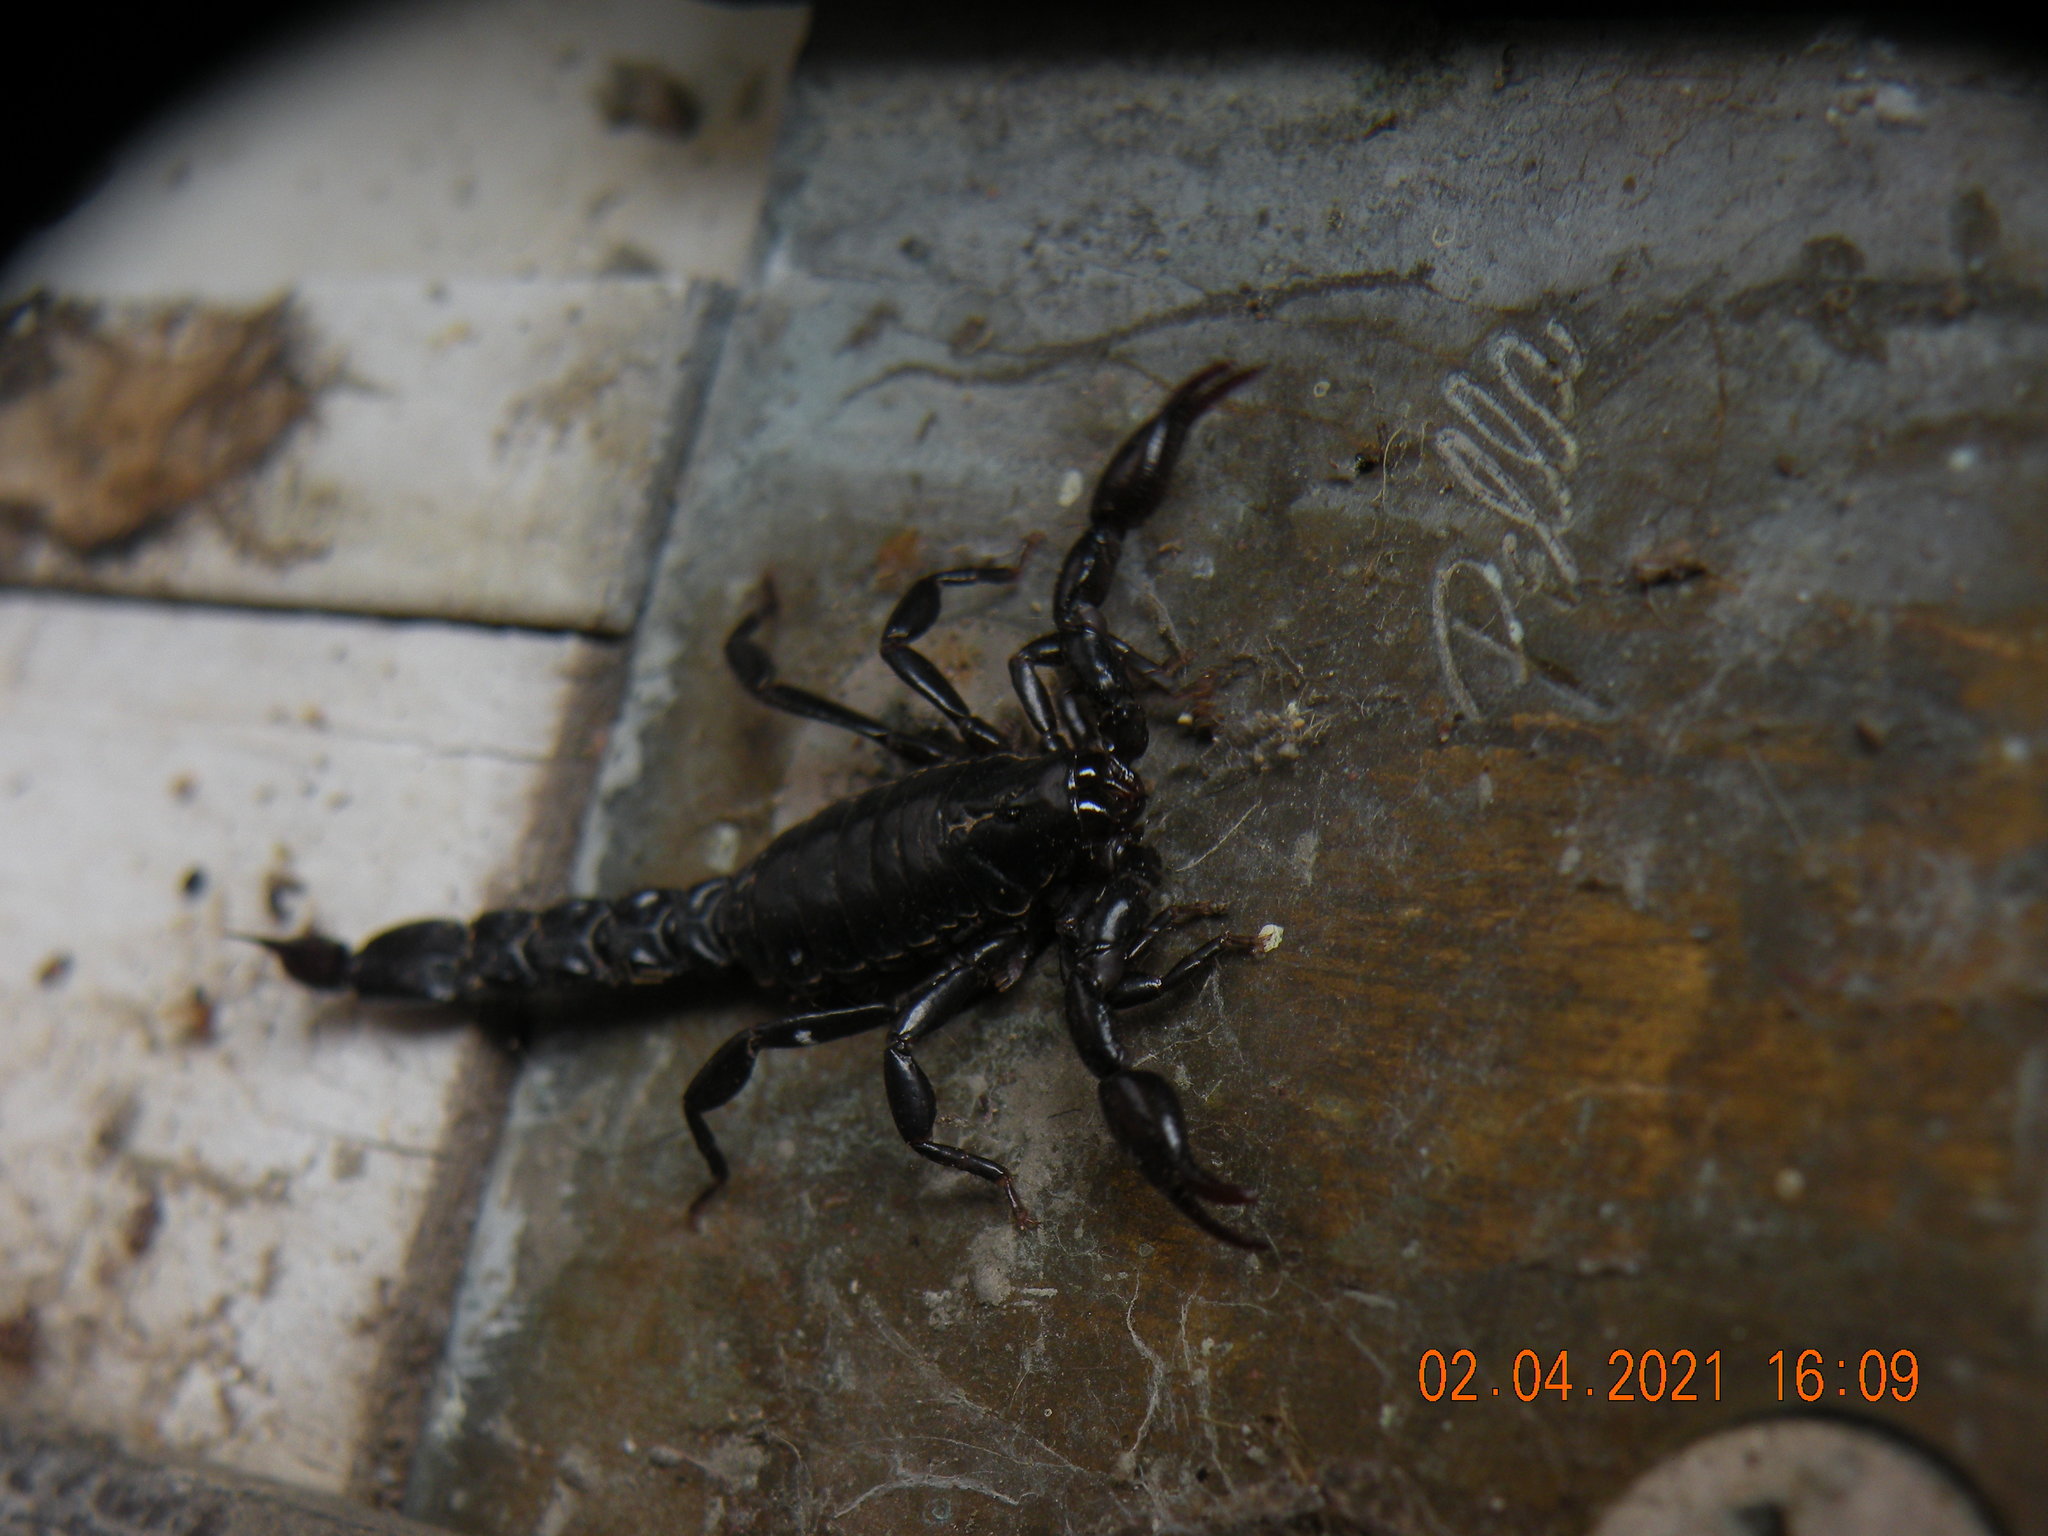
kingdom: Animalia
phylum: Arthropoda
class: Arachnida
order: Scorpiones
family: Bothriuridae
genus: Bothriurus
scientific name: Bothriurus bonariensis
